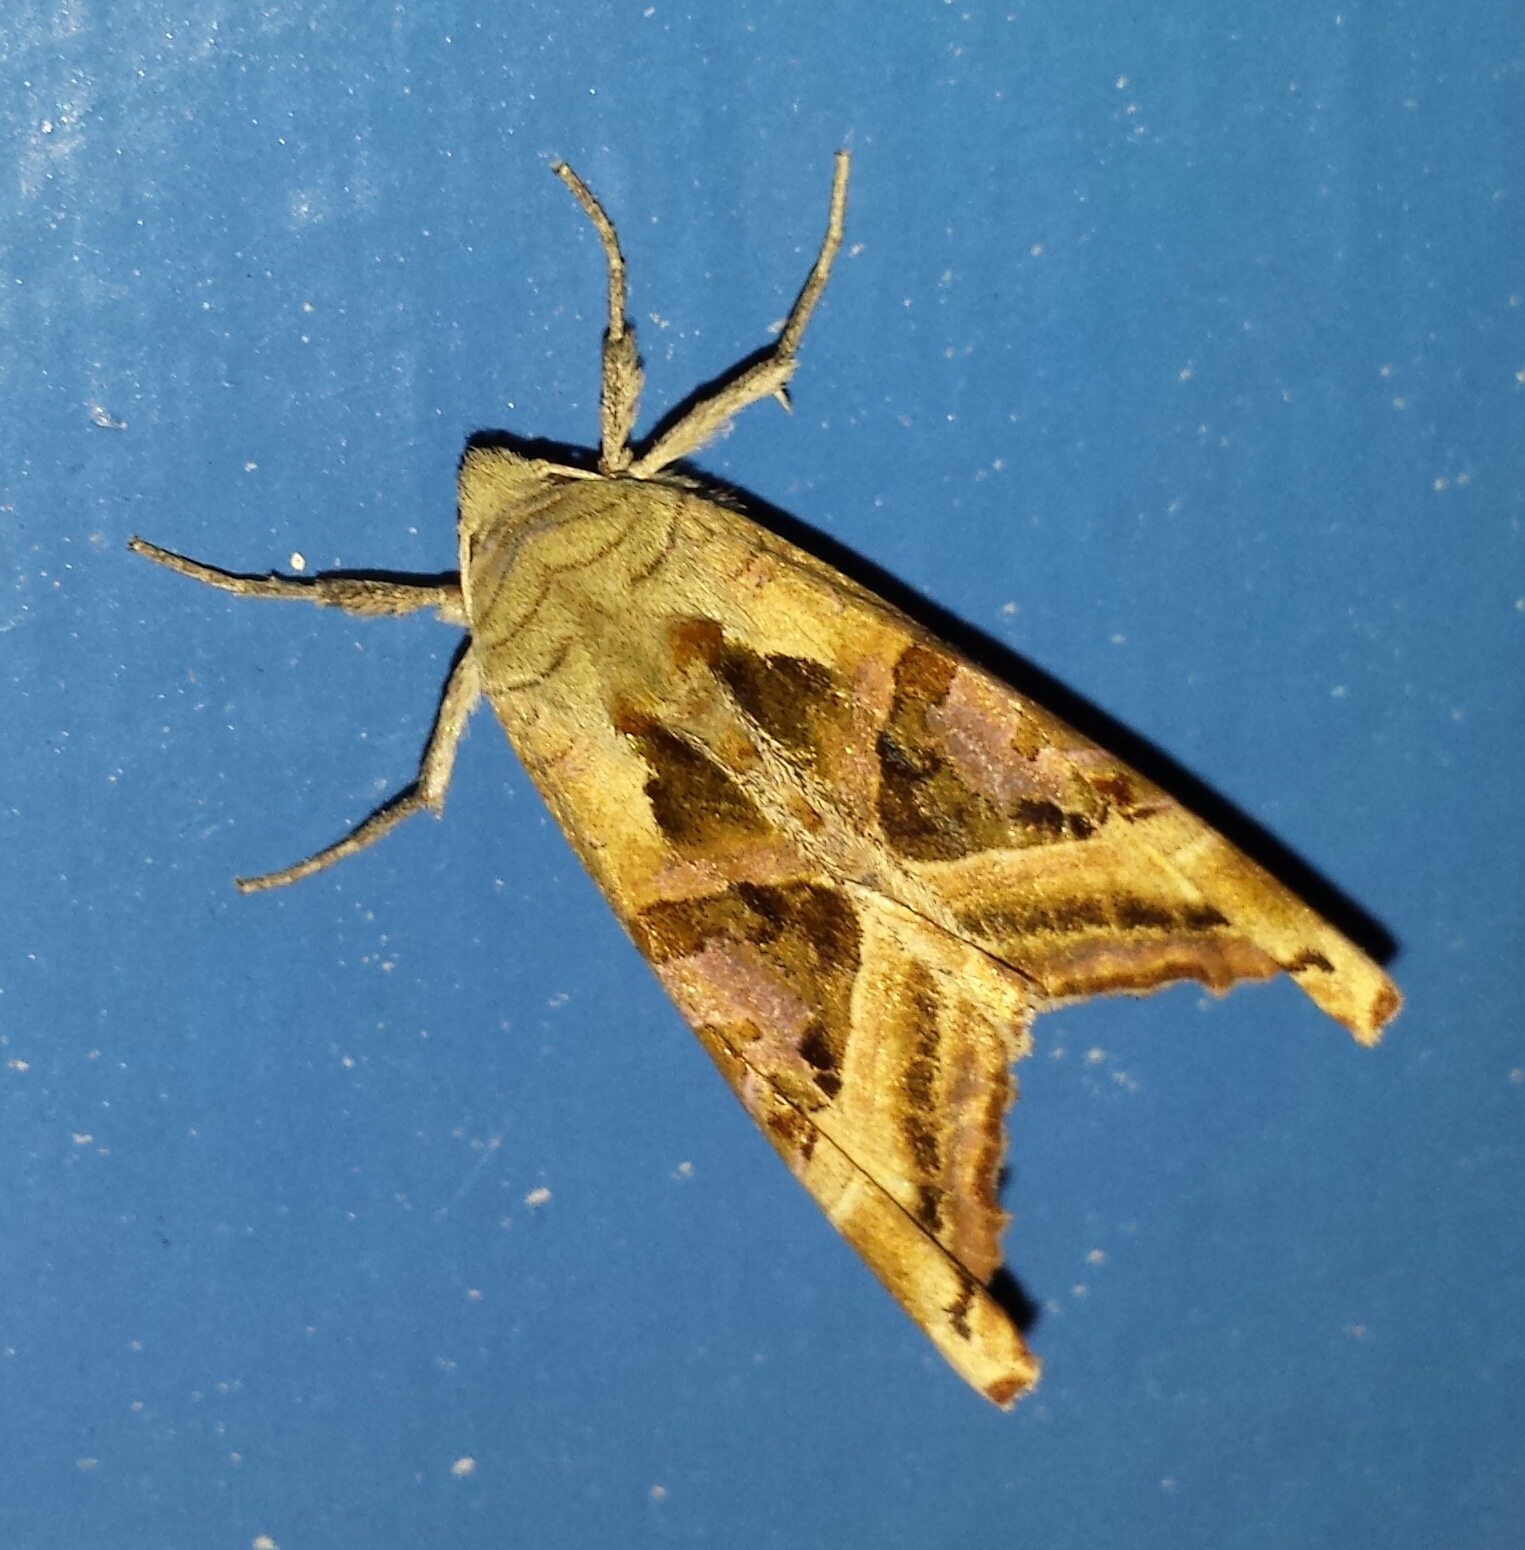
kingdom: Animalia
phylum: Arthropoda
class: Insecta
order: Lepidoptera
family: Noctuidae
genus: Phlogophora
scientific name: Phlogophora iris
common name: Olive angle shades
